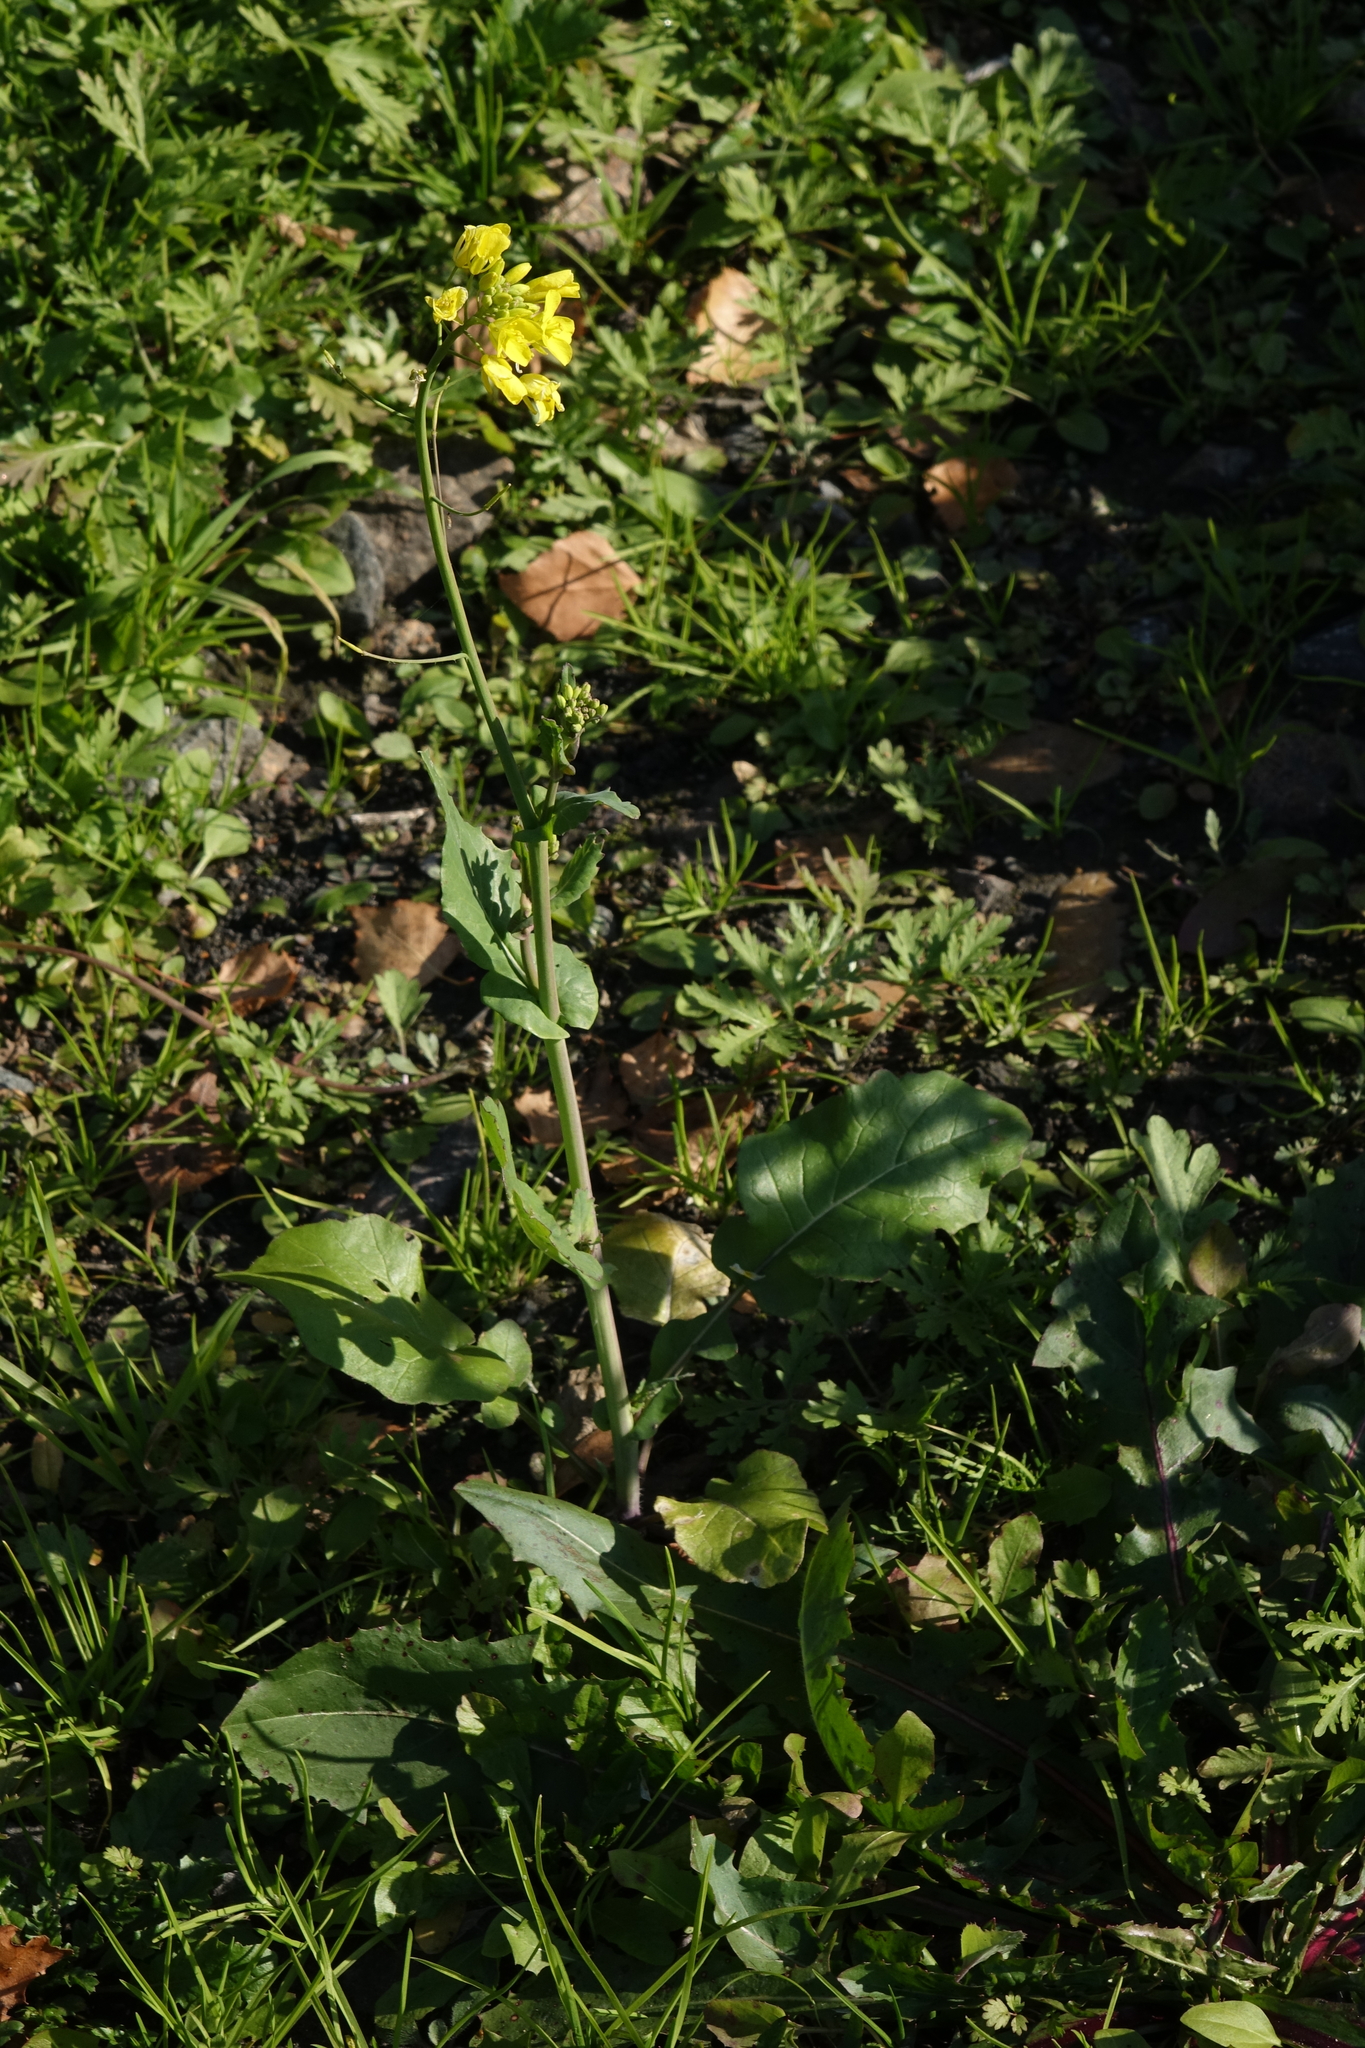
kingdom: Plantae
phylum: Tracheophyta
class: Magnoliopsida
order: Brassicales
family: Brassicaceae
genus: Brassica
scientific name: Brassica rapa
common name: Field mustard
